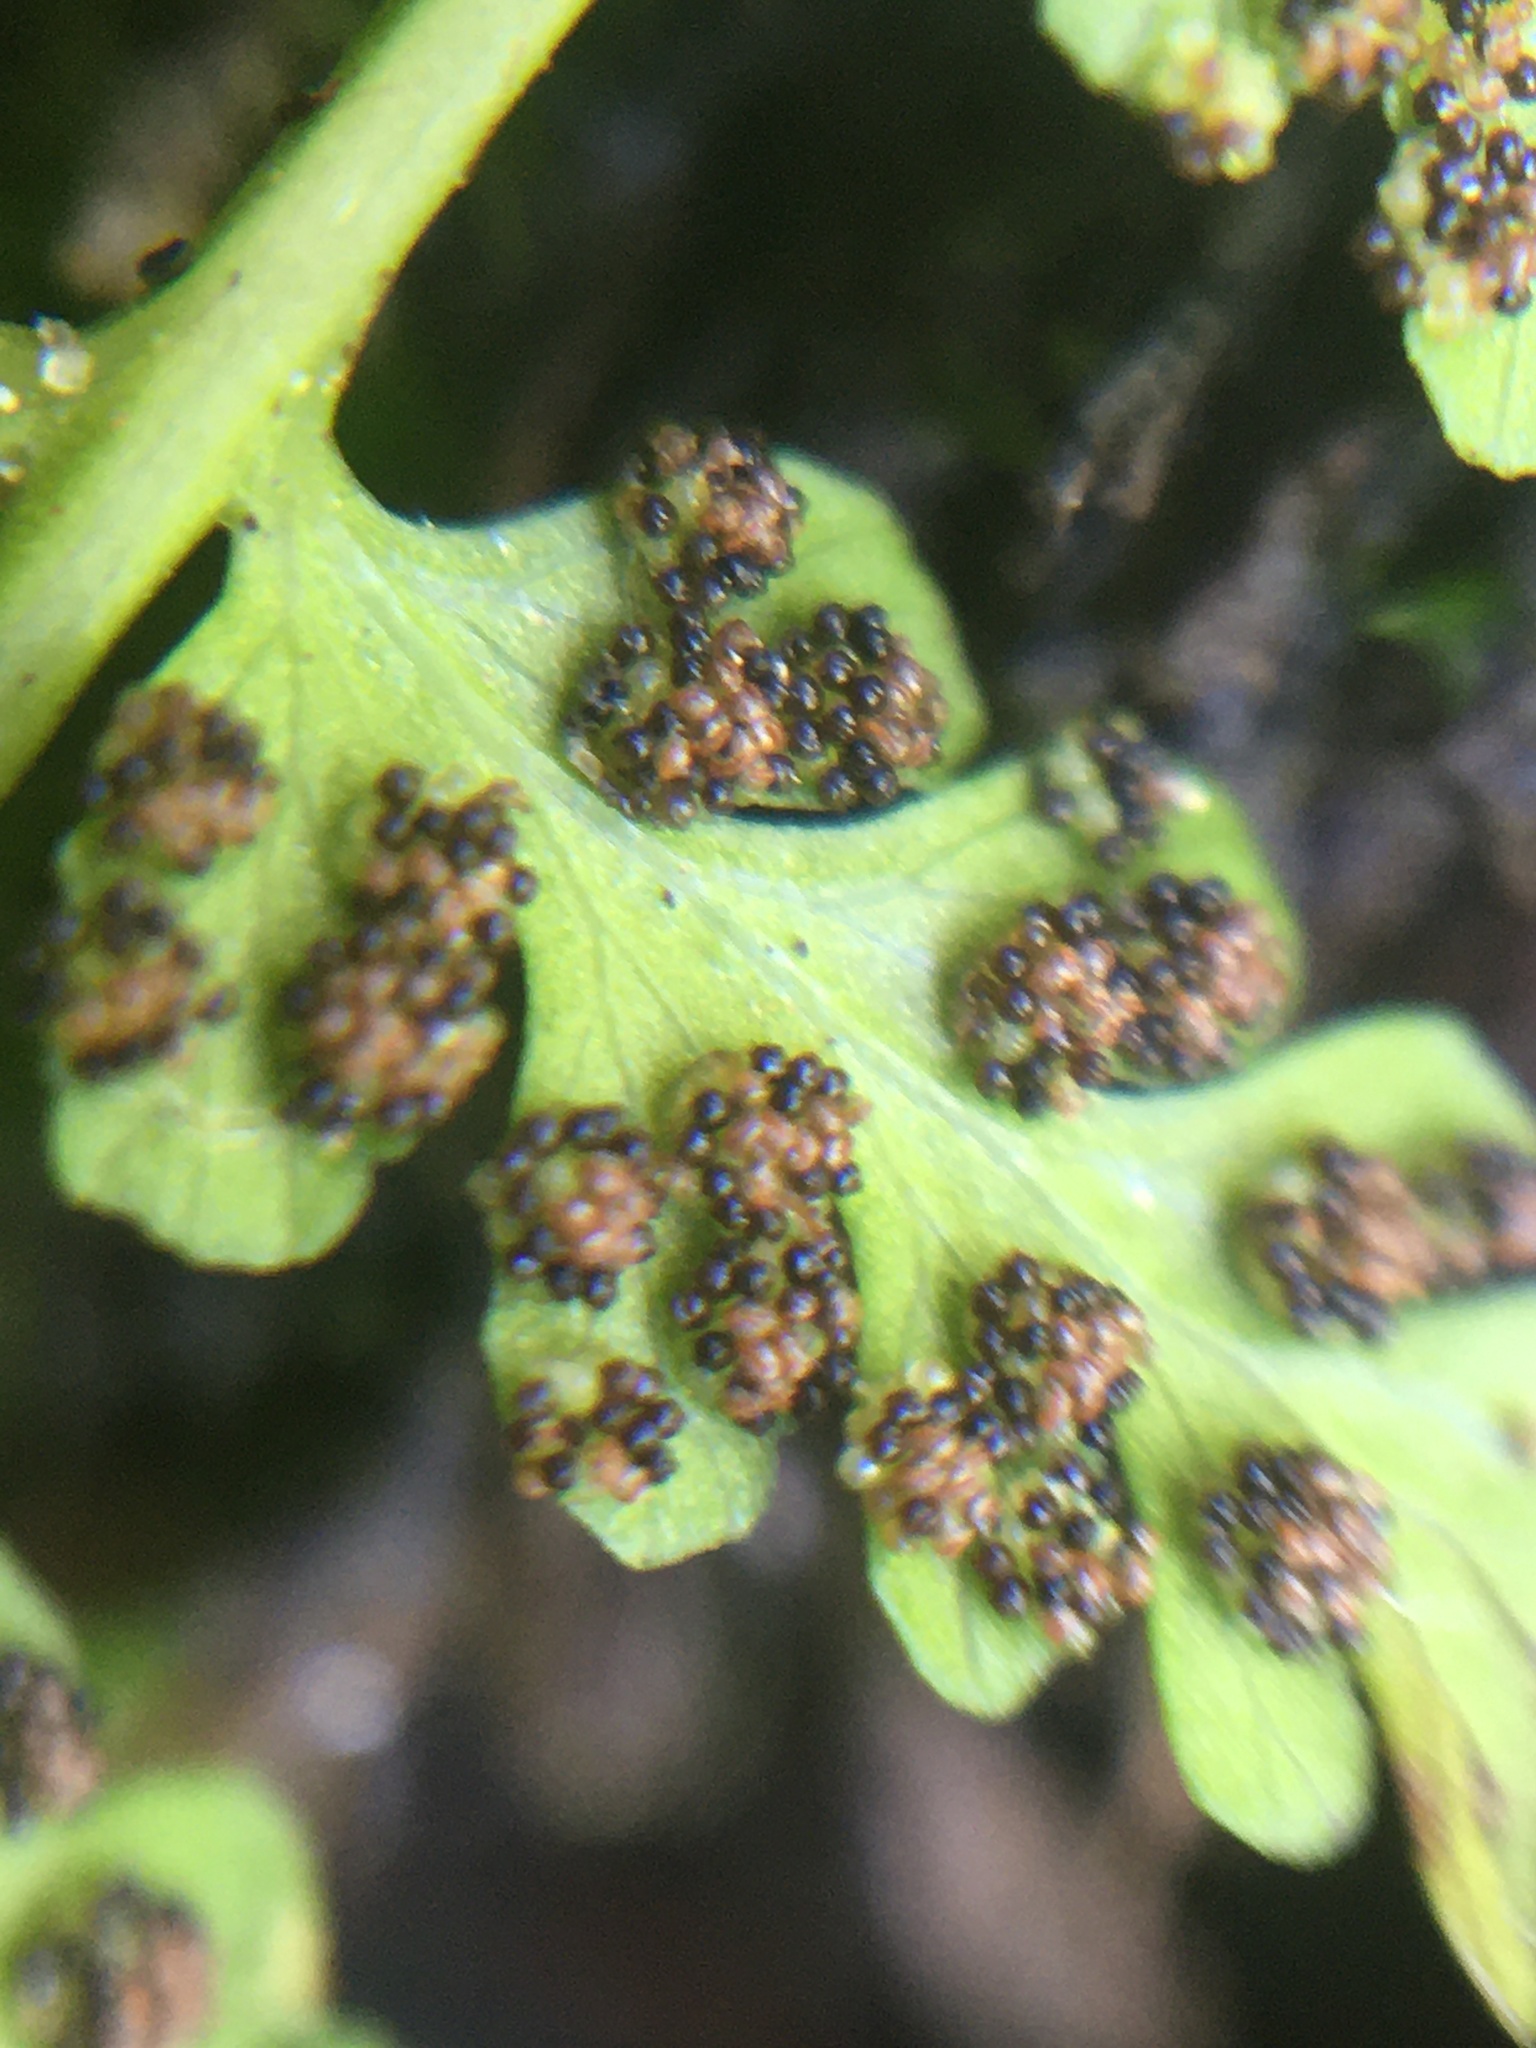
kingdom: Plantae
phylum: Tracheophyta
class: Polypodiopsida
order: Polypodiales
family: Cystopteridaceae
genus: Cystopteris
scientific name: Cystopteris fragilis
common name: Brittle bladder fern
